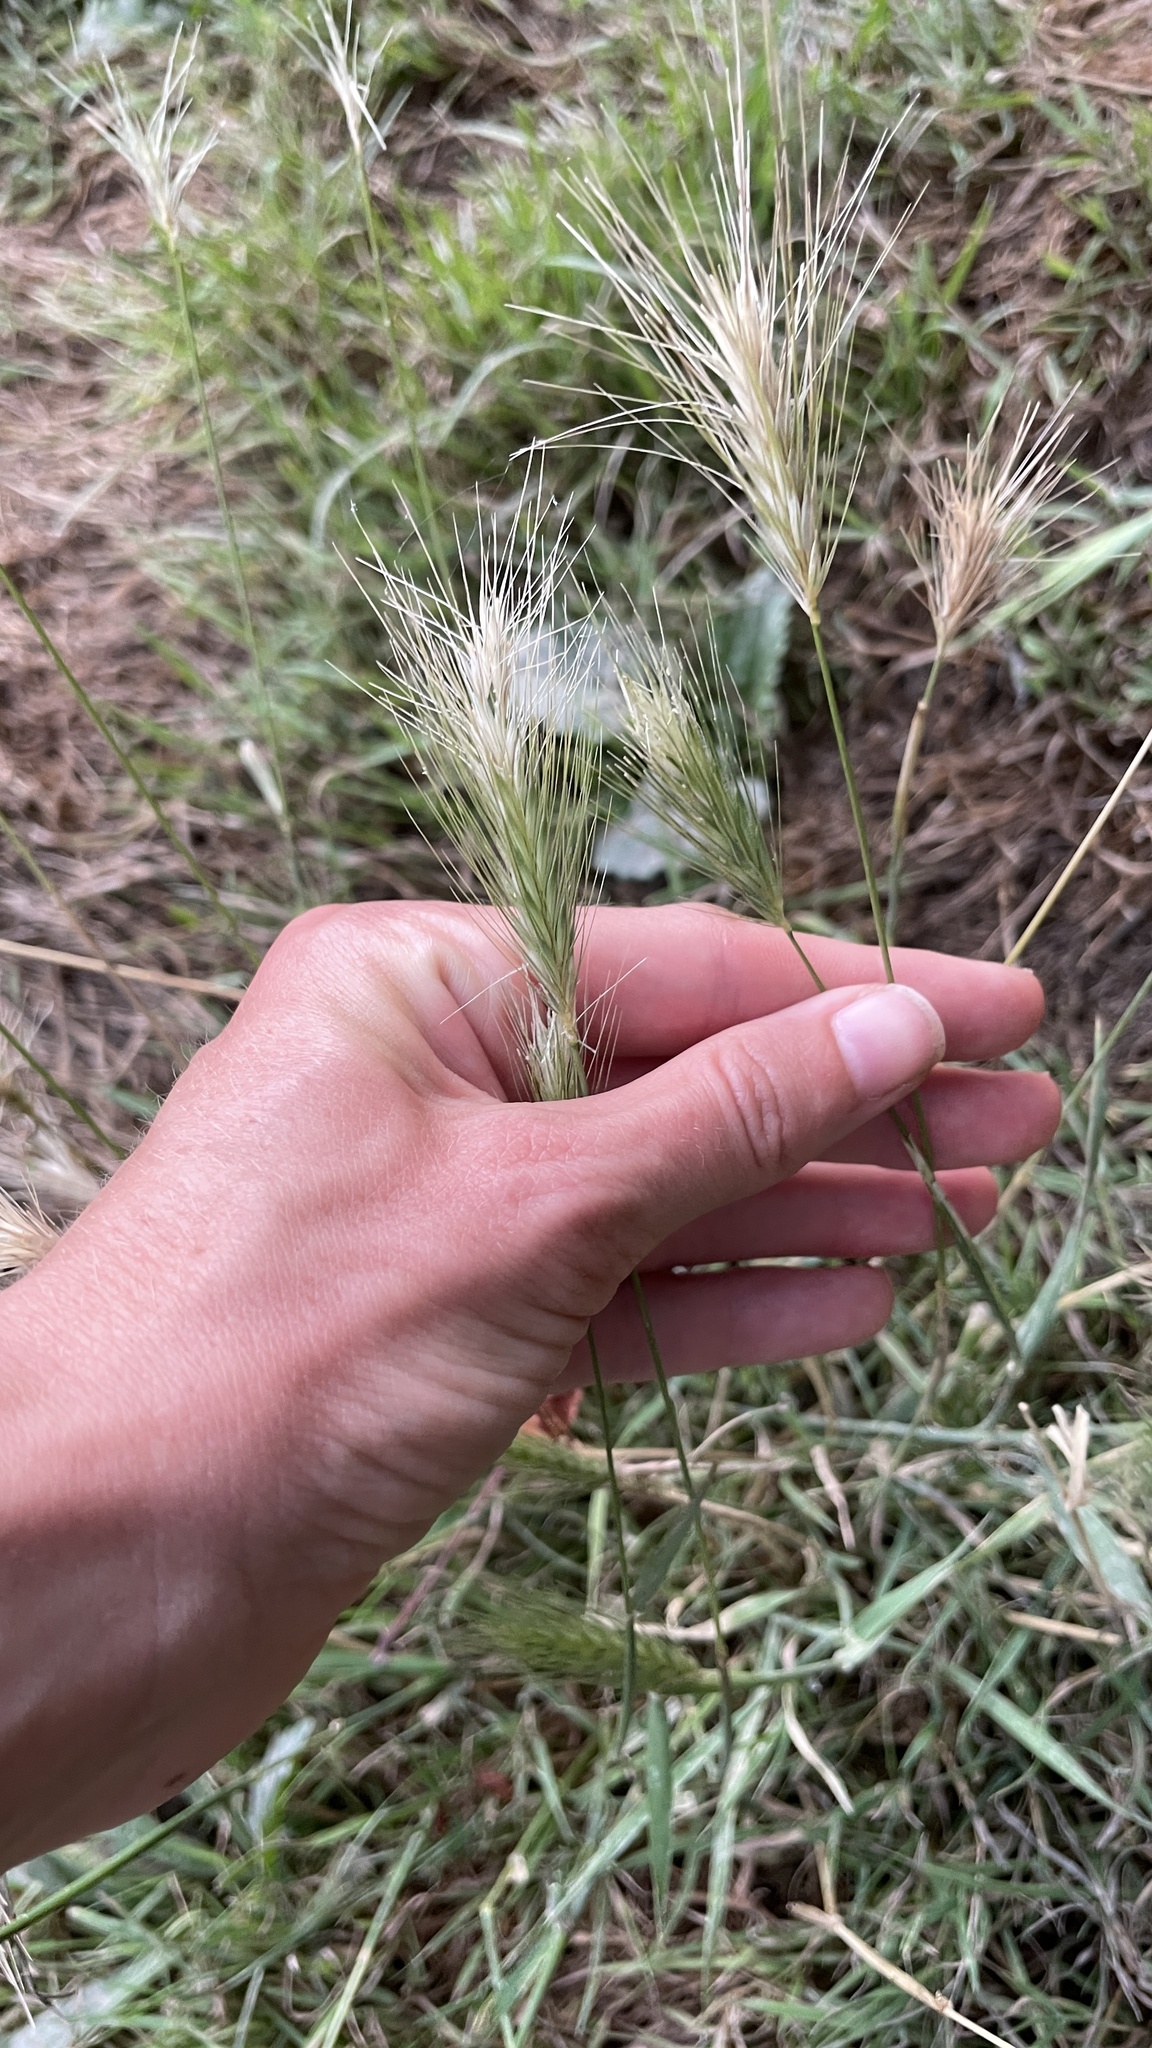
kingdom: Plantae
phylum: Tracheophyta
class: Liliopsida
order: Poales
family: Poaceae
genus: Hordeum
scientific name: Hordeum jubatum
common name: Foxtail barley
